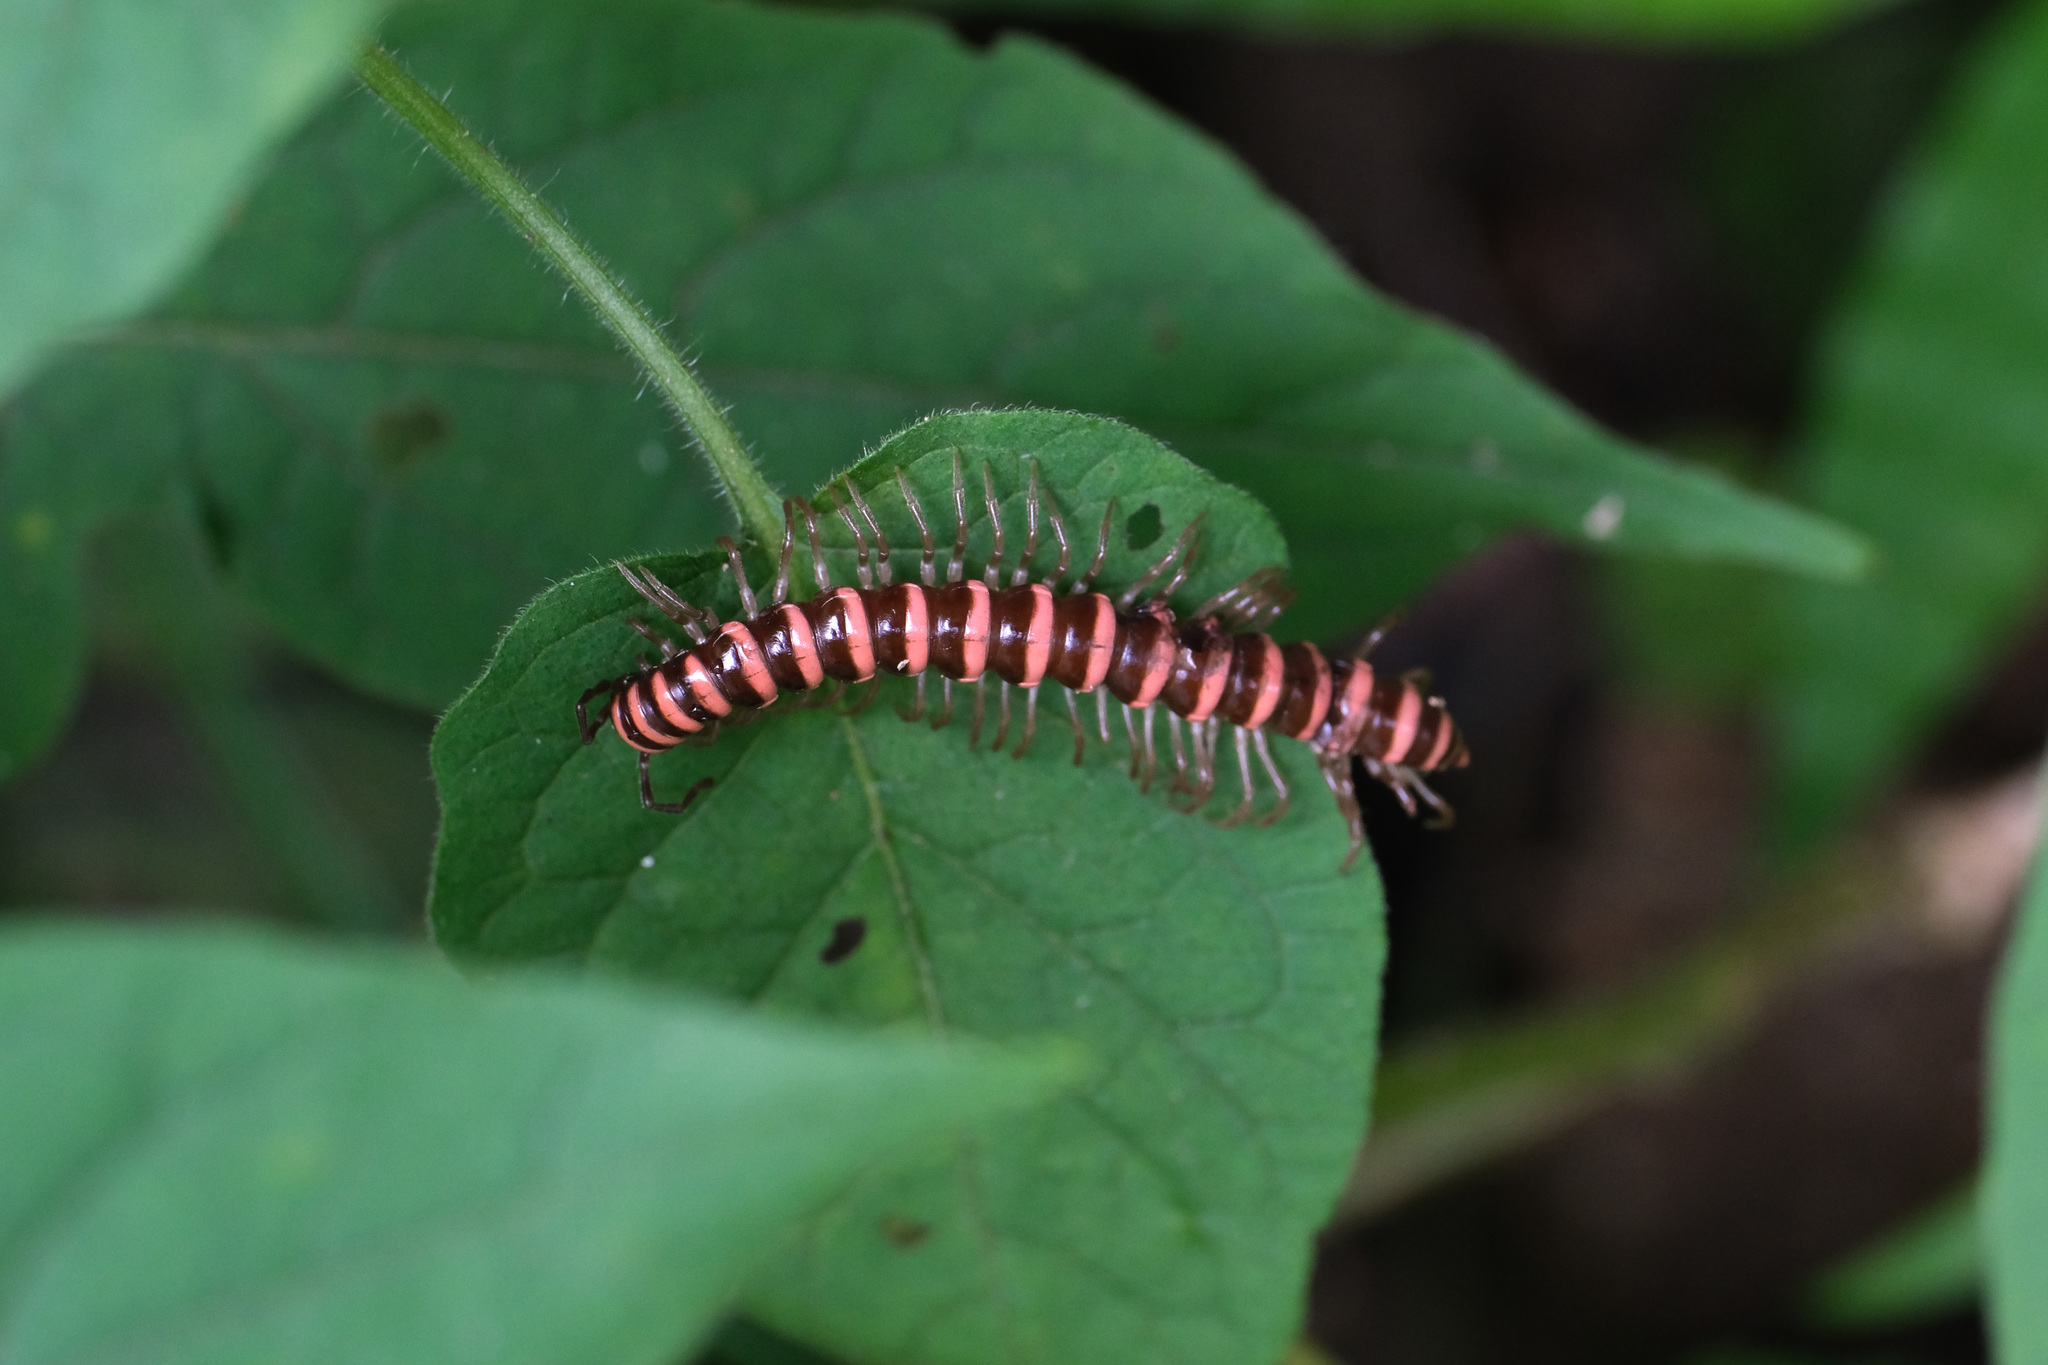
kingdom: Animalia
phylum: Arthropoda
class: Diplopoda
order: Polydesmida
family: Paradoxosomatidae
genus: Nedyopus
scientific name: Nedyopus patrioticus
